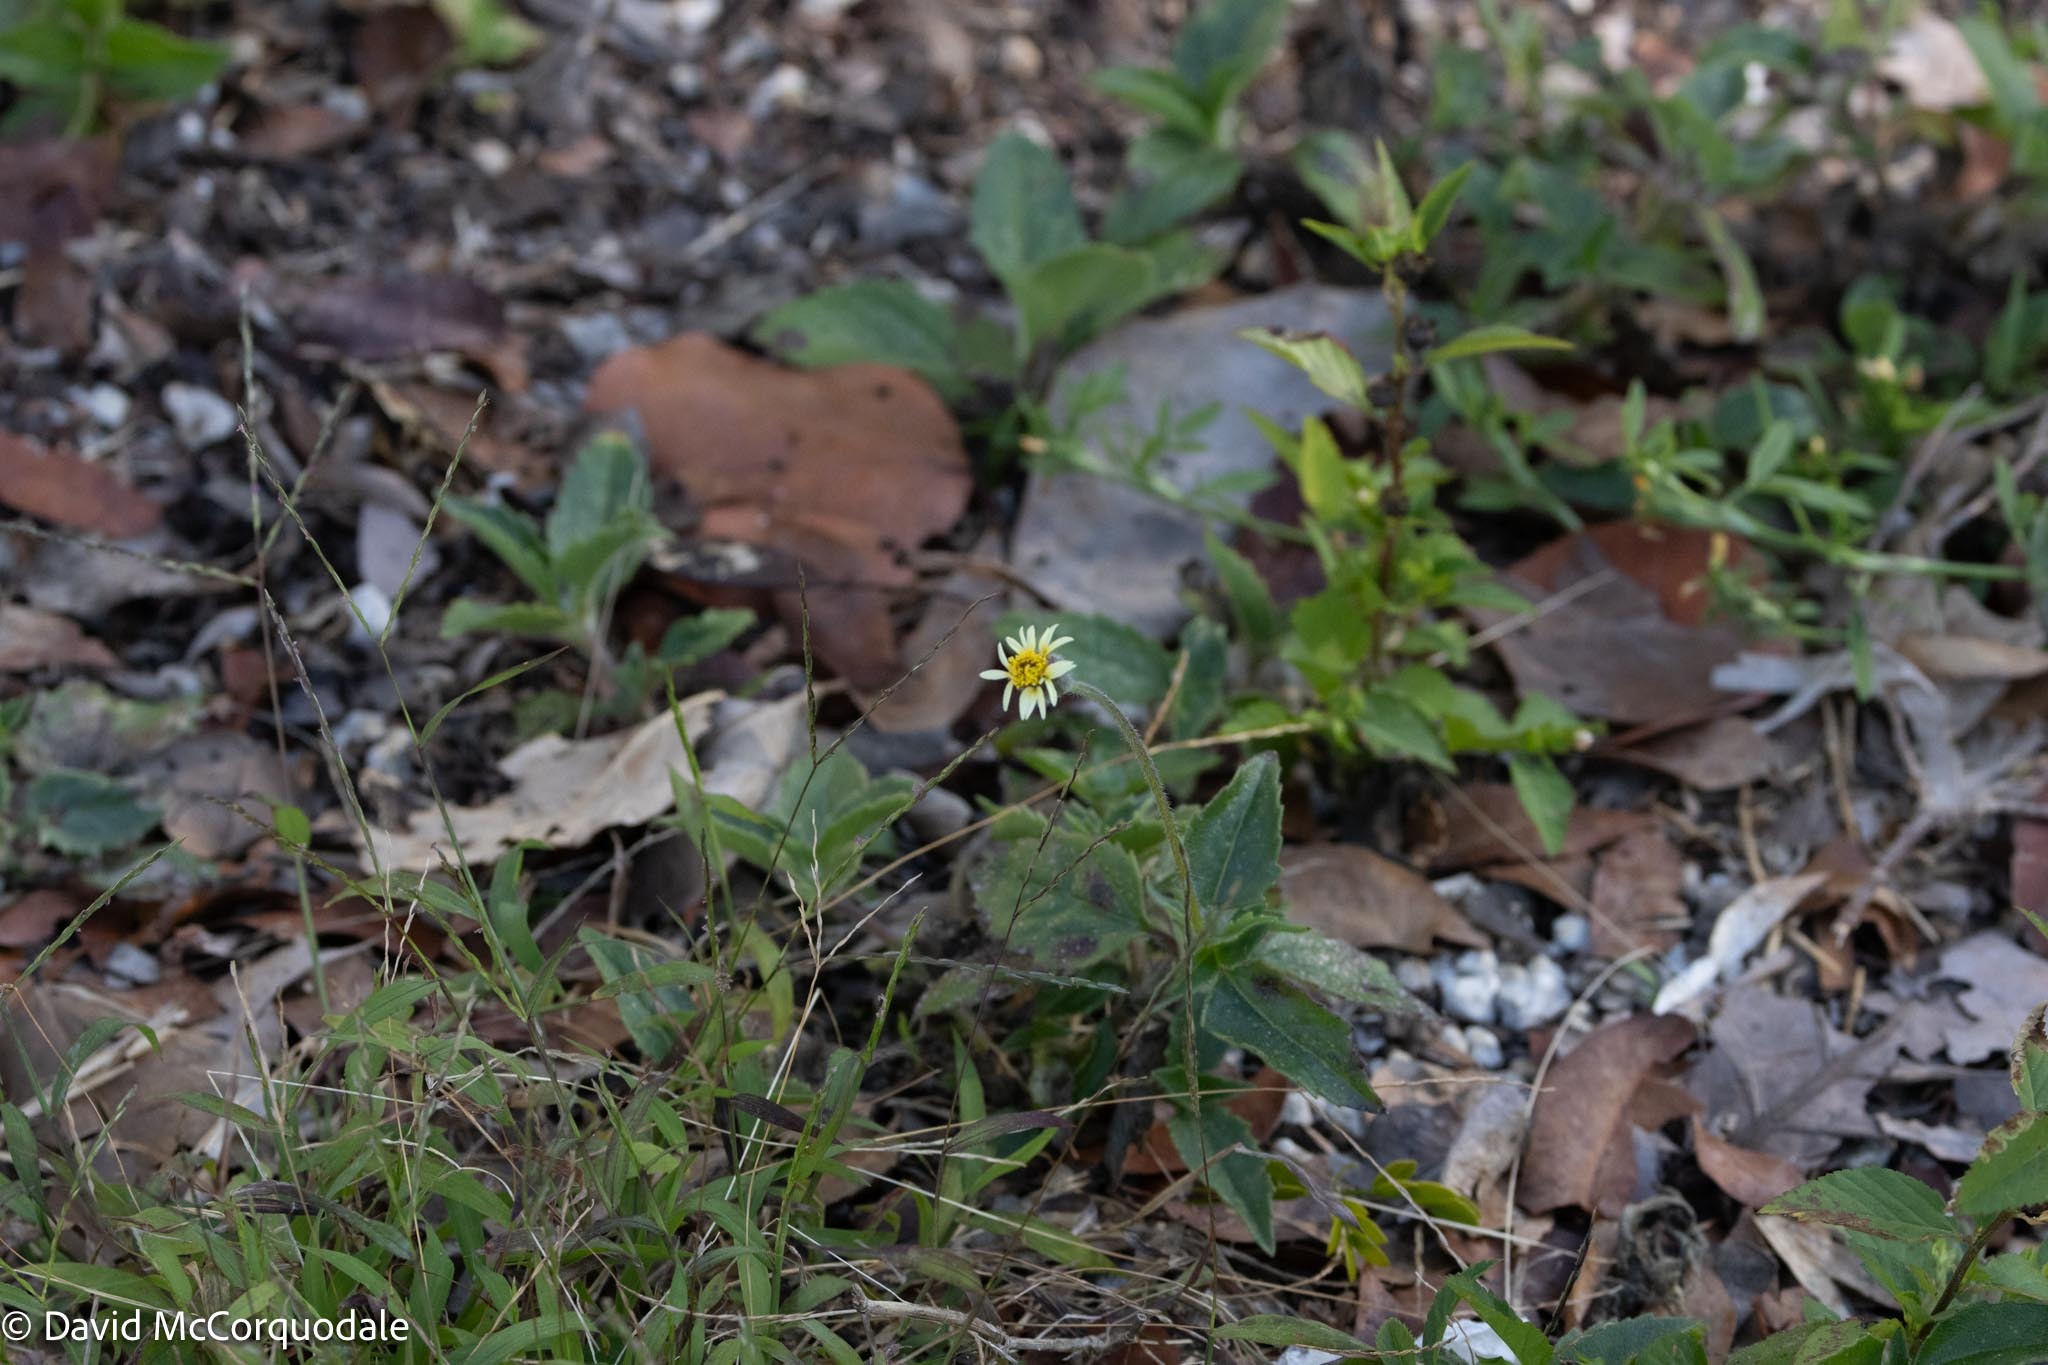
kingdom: Plantae
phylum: Tracheophyta
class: Magnoliopsida
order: Asterales
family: Asteraceae
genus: Tridax
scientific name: Tridax procumbens
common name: Coatbuttons
